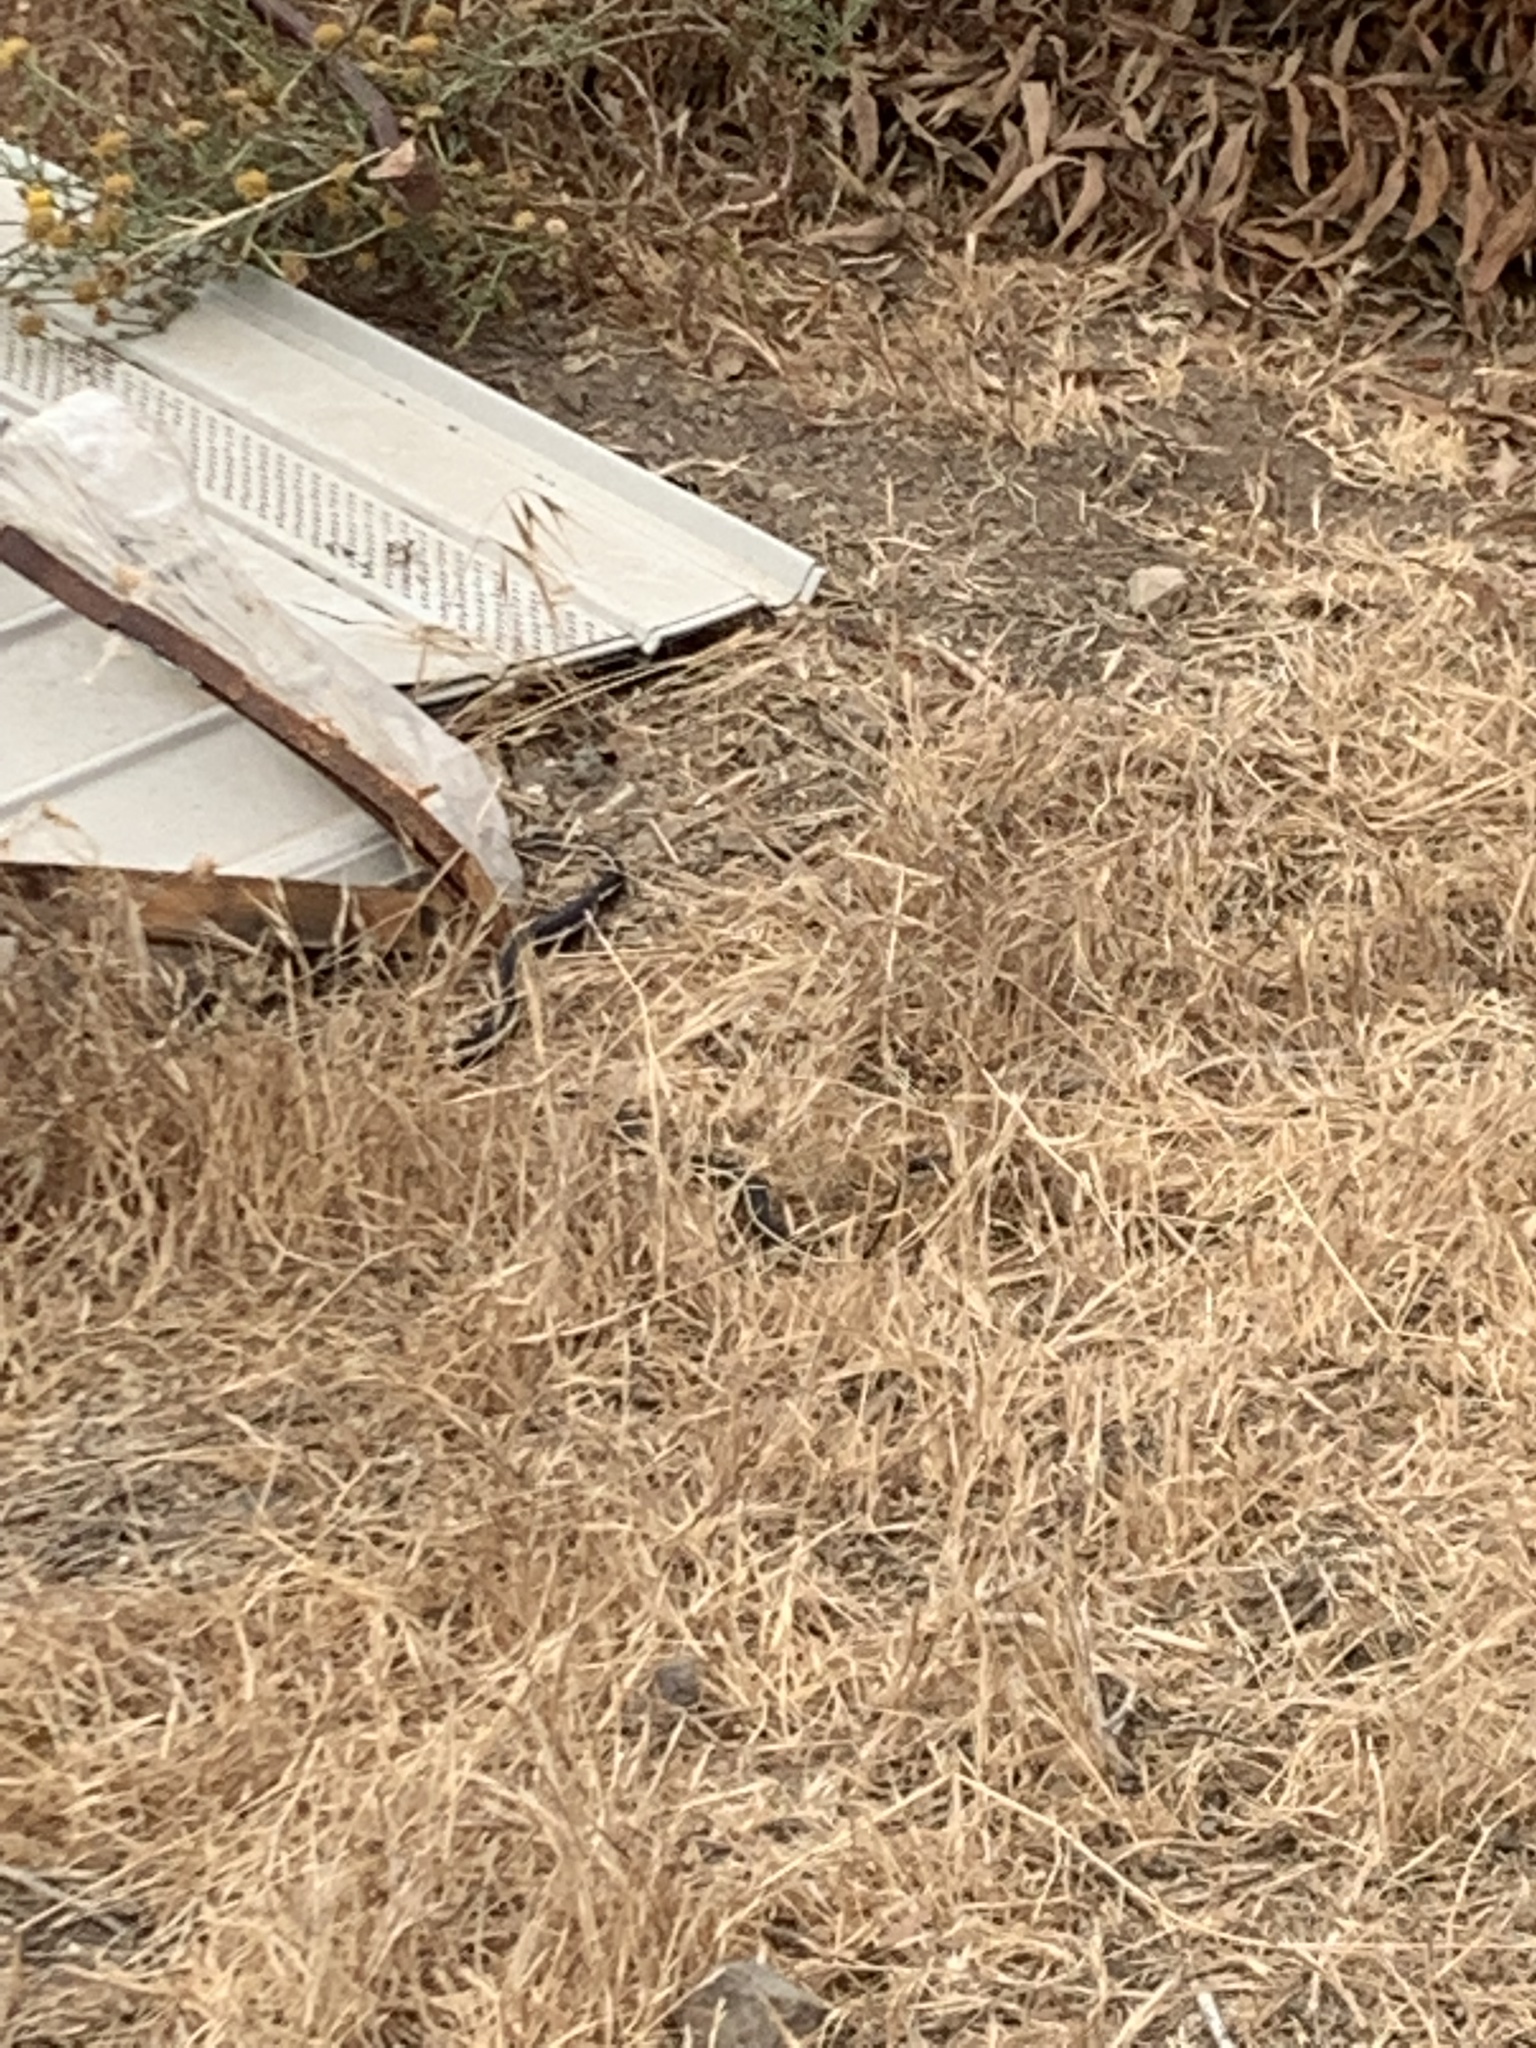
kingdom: Animalia
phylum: Chordata
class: Squamata
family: Colubridae
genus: Masticophis
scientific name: Masticophis lateralis
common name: Striped racer
